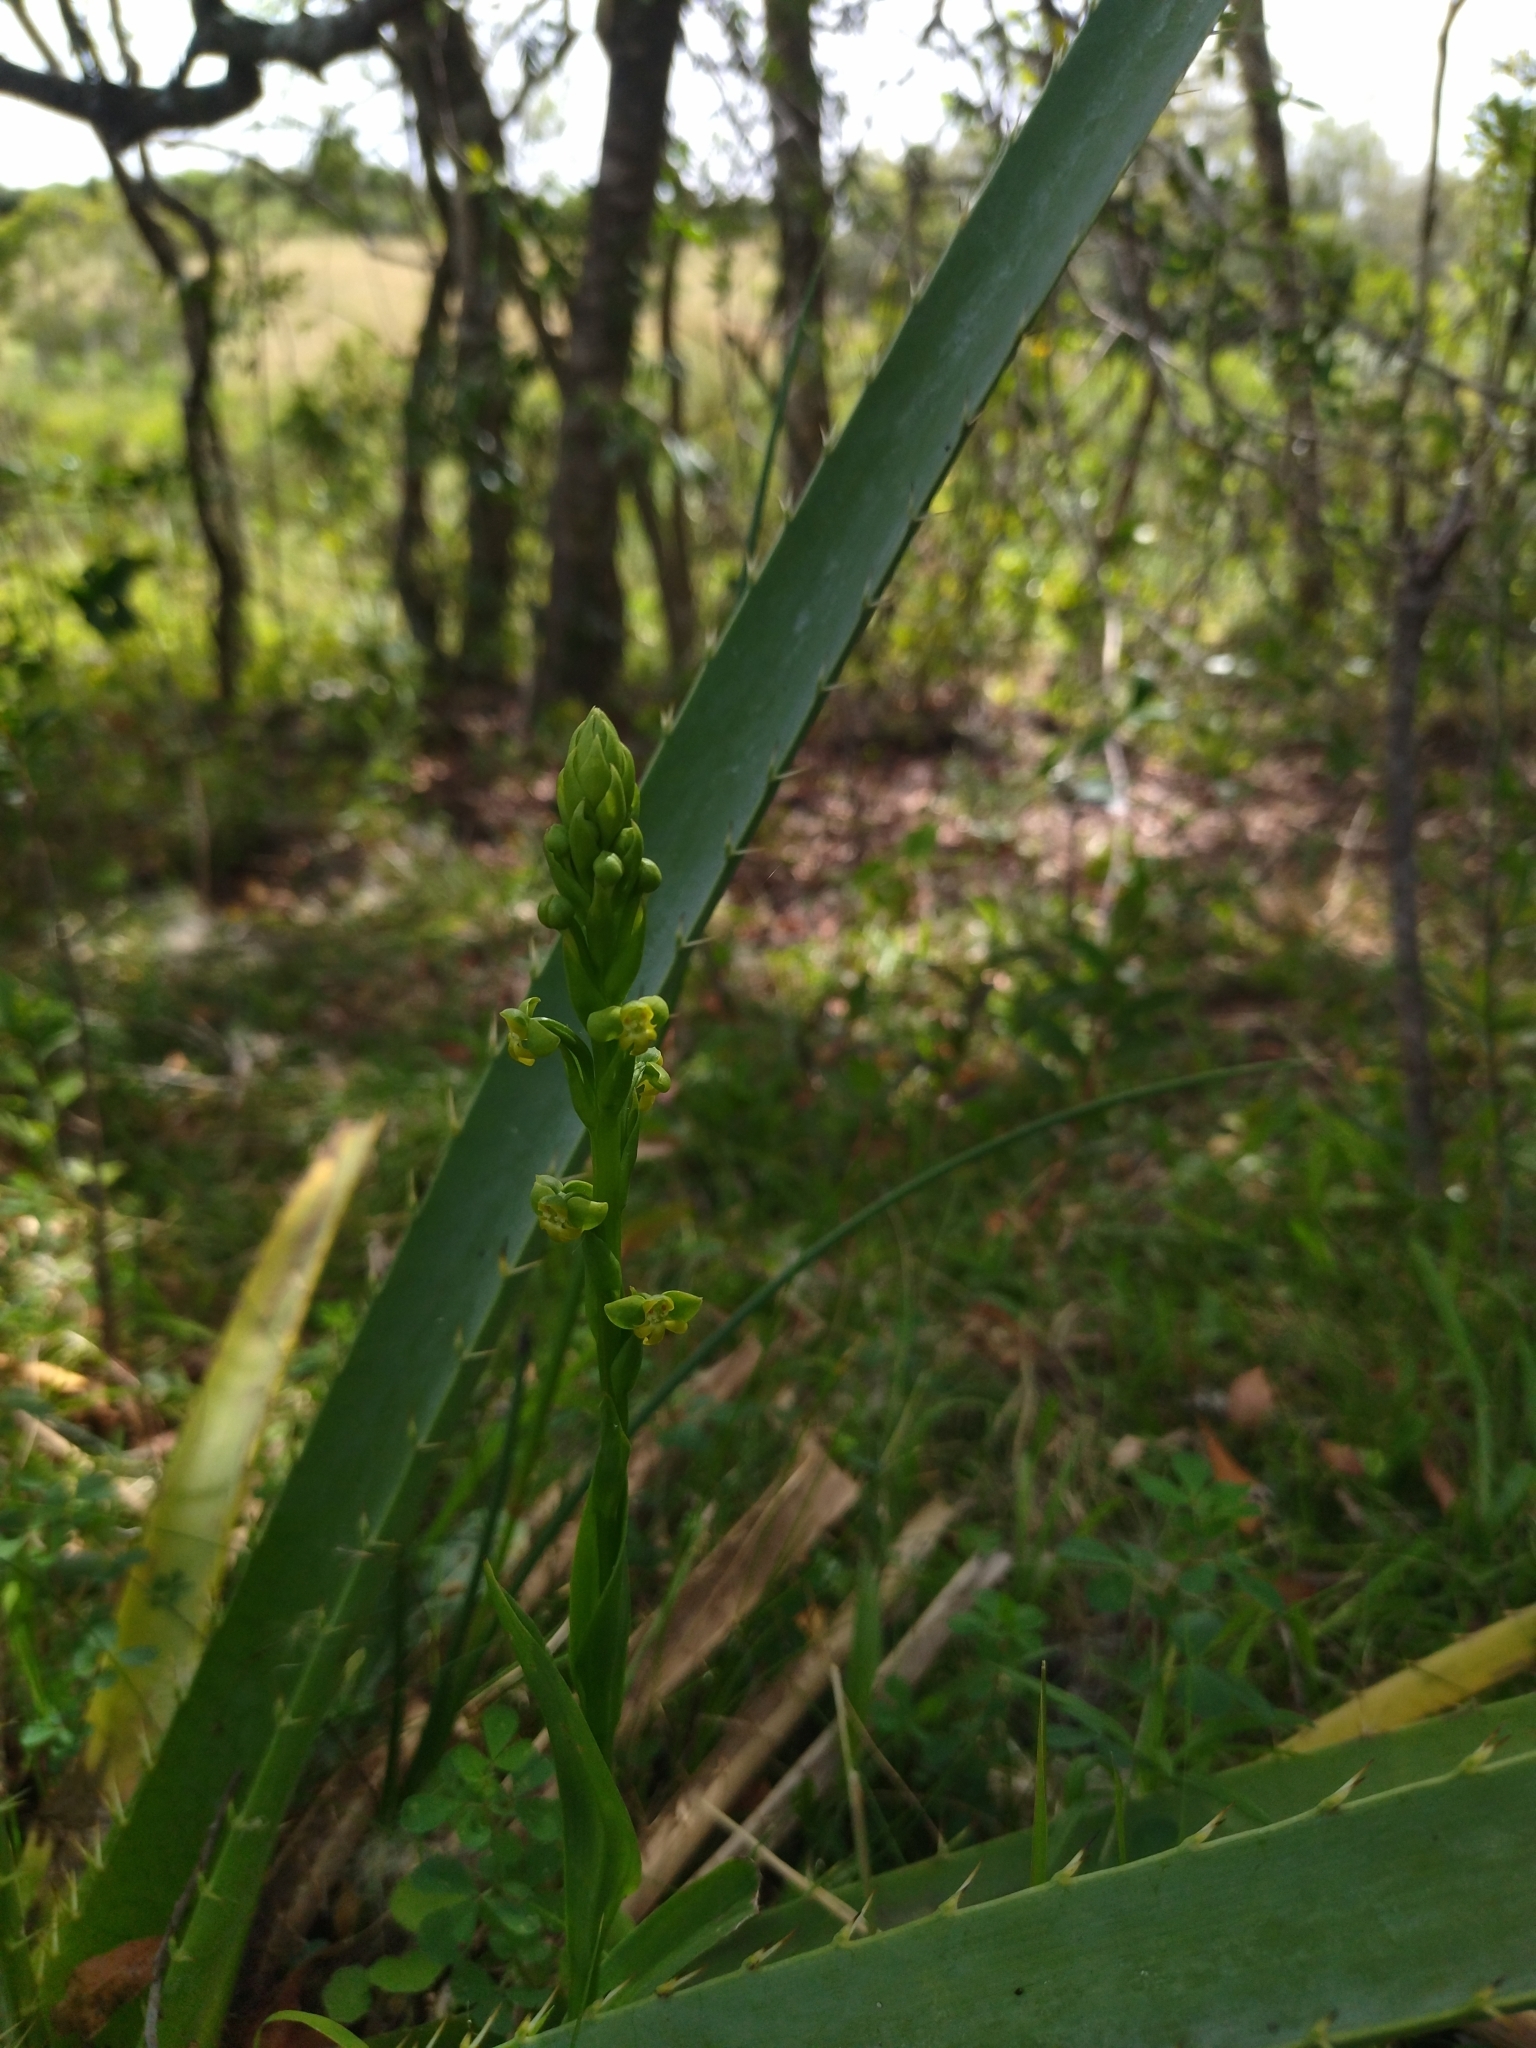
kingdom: Plantae
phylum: Tracheophyta
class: Liliopsida
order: Asparagales
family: Orchidaceae
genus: Habenaria
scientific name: Habenaria henscheniana
